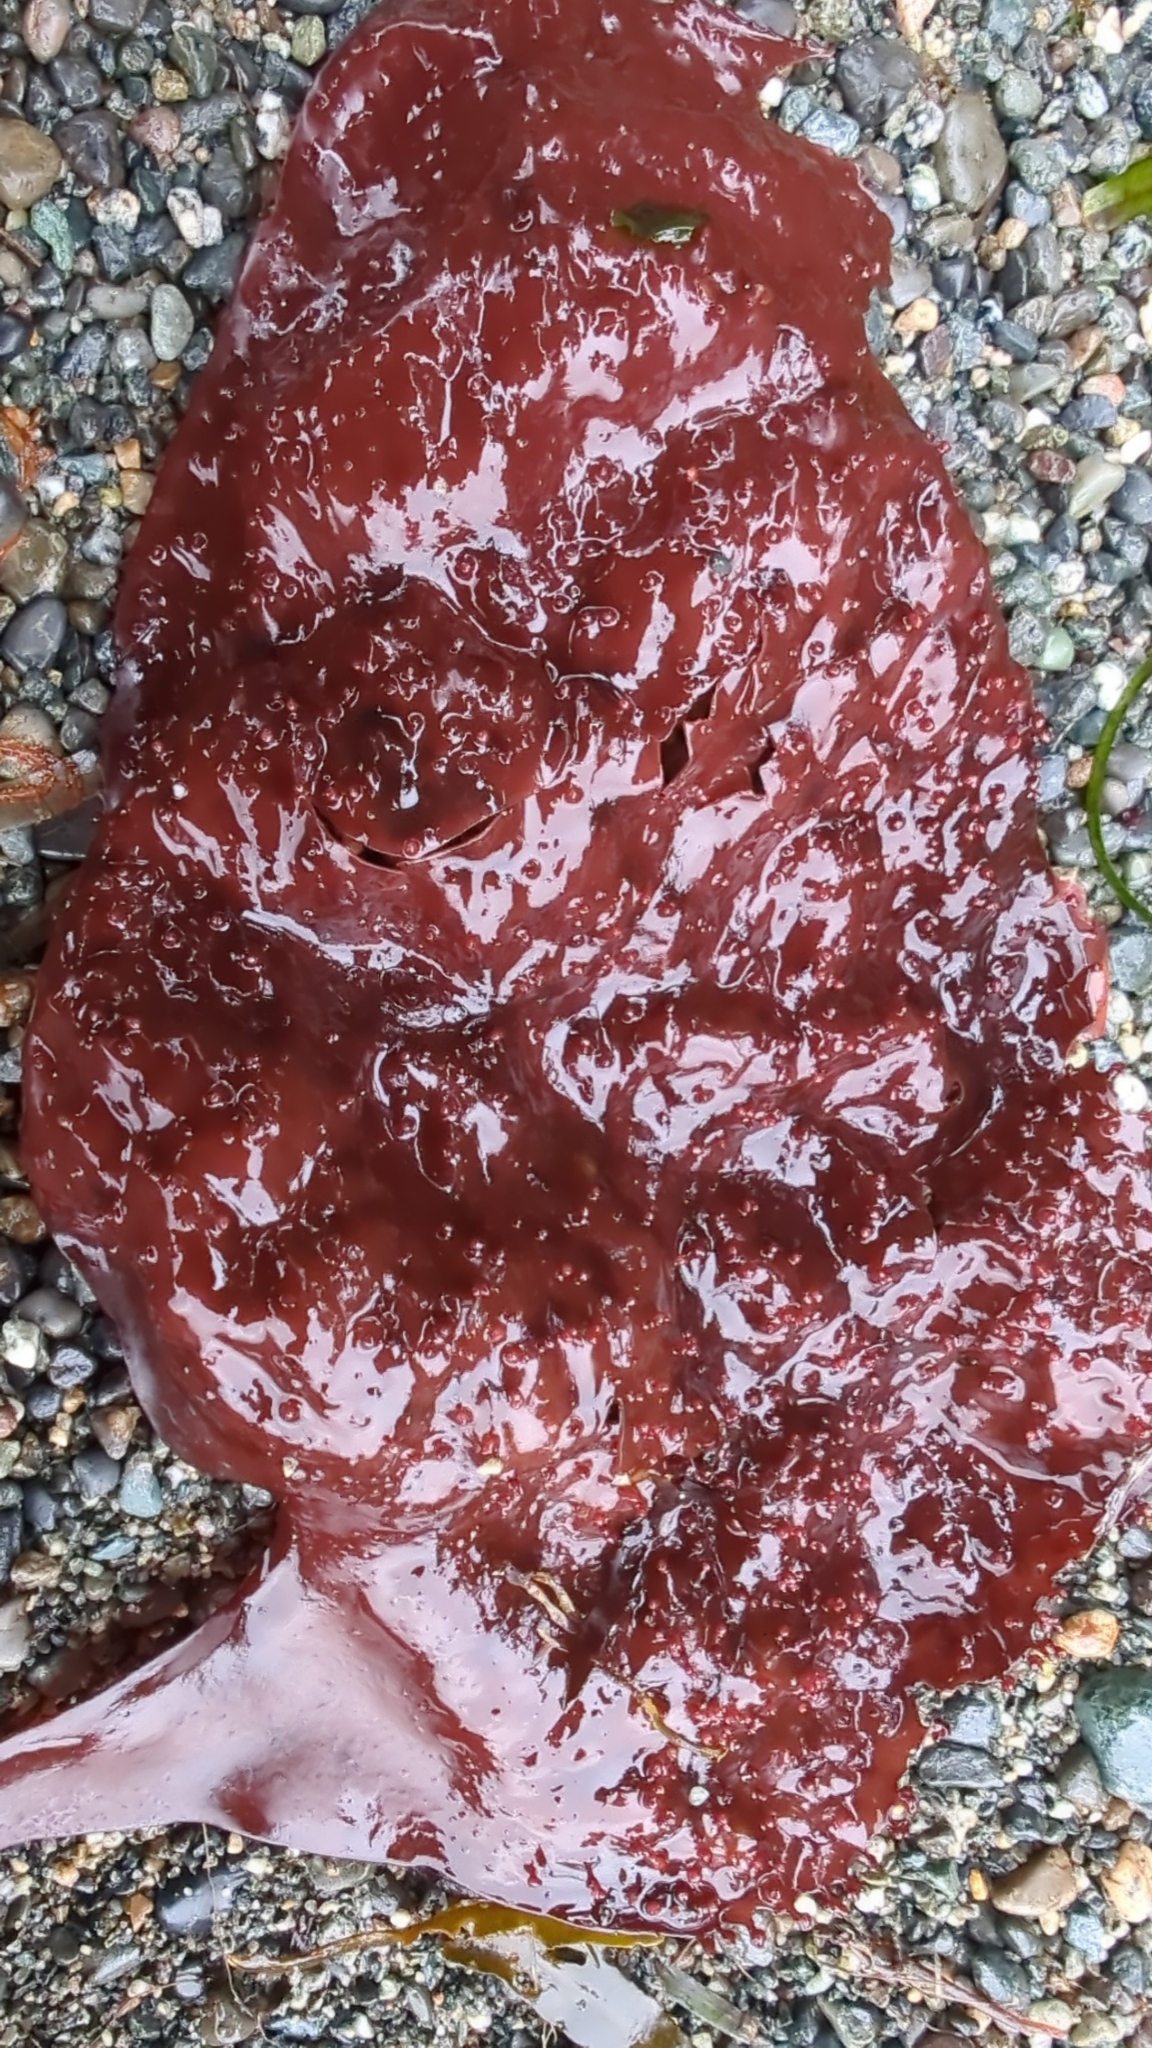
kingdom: Plantae
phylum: Rhodophyta
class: Florideophyceae
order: Gigartinales
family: Gigartinaceae
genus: Chondracanthus
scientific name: Chondracanthus exasperatus
